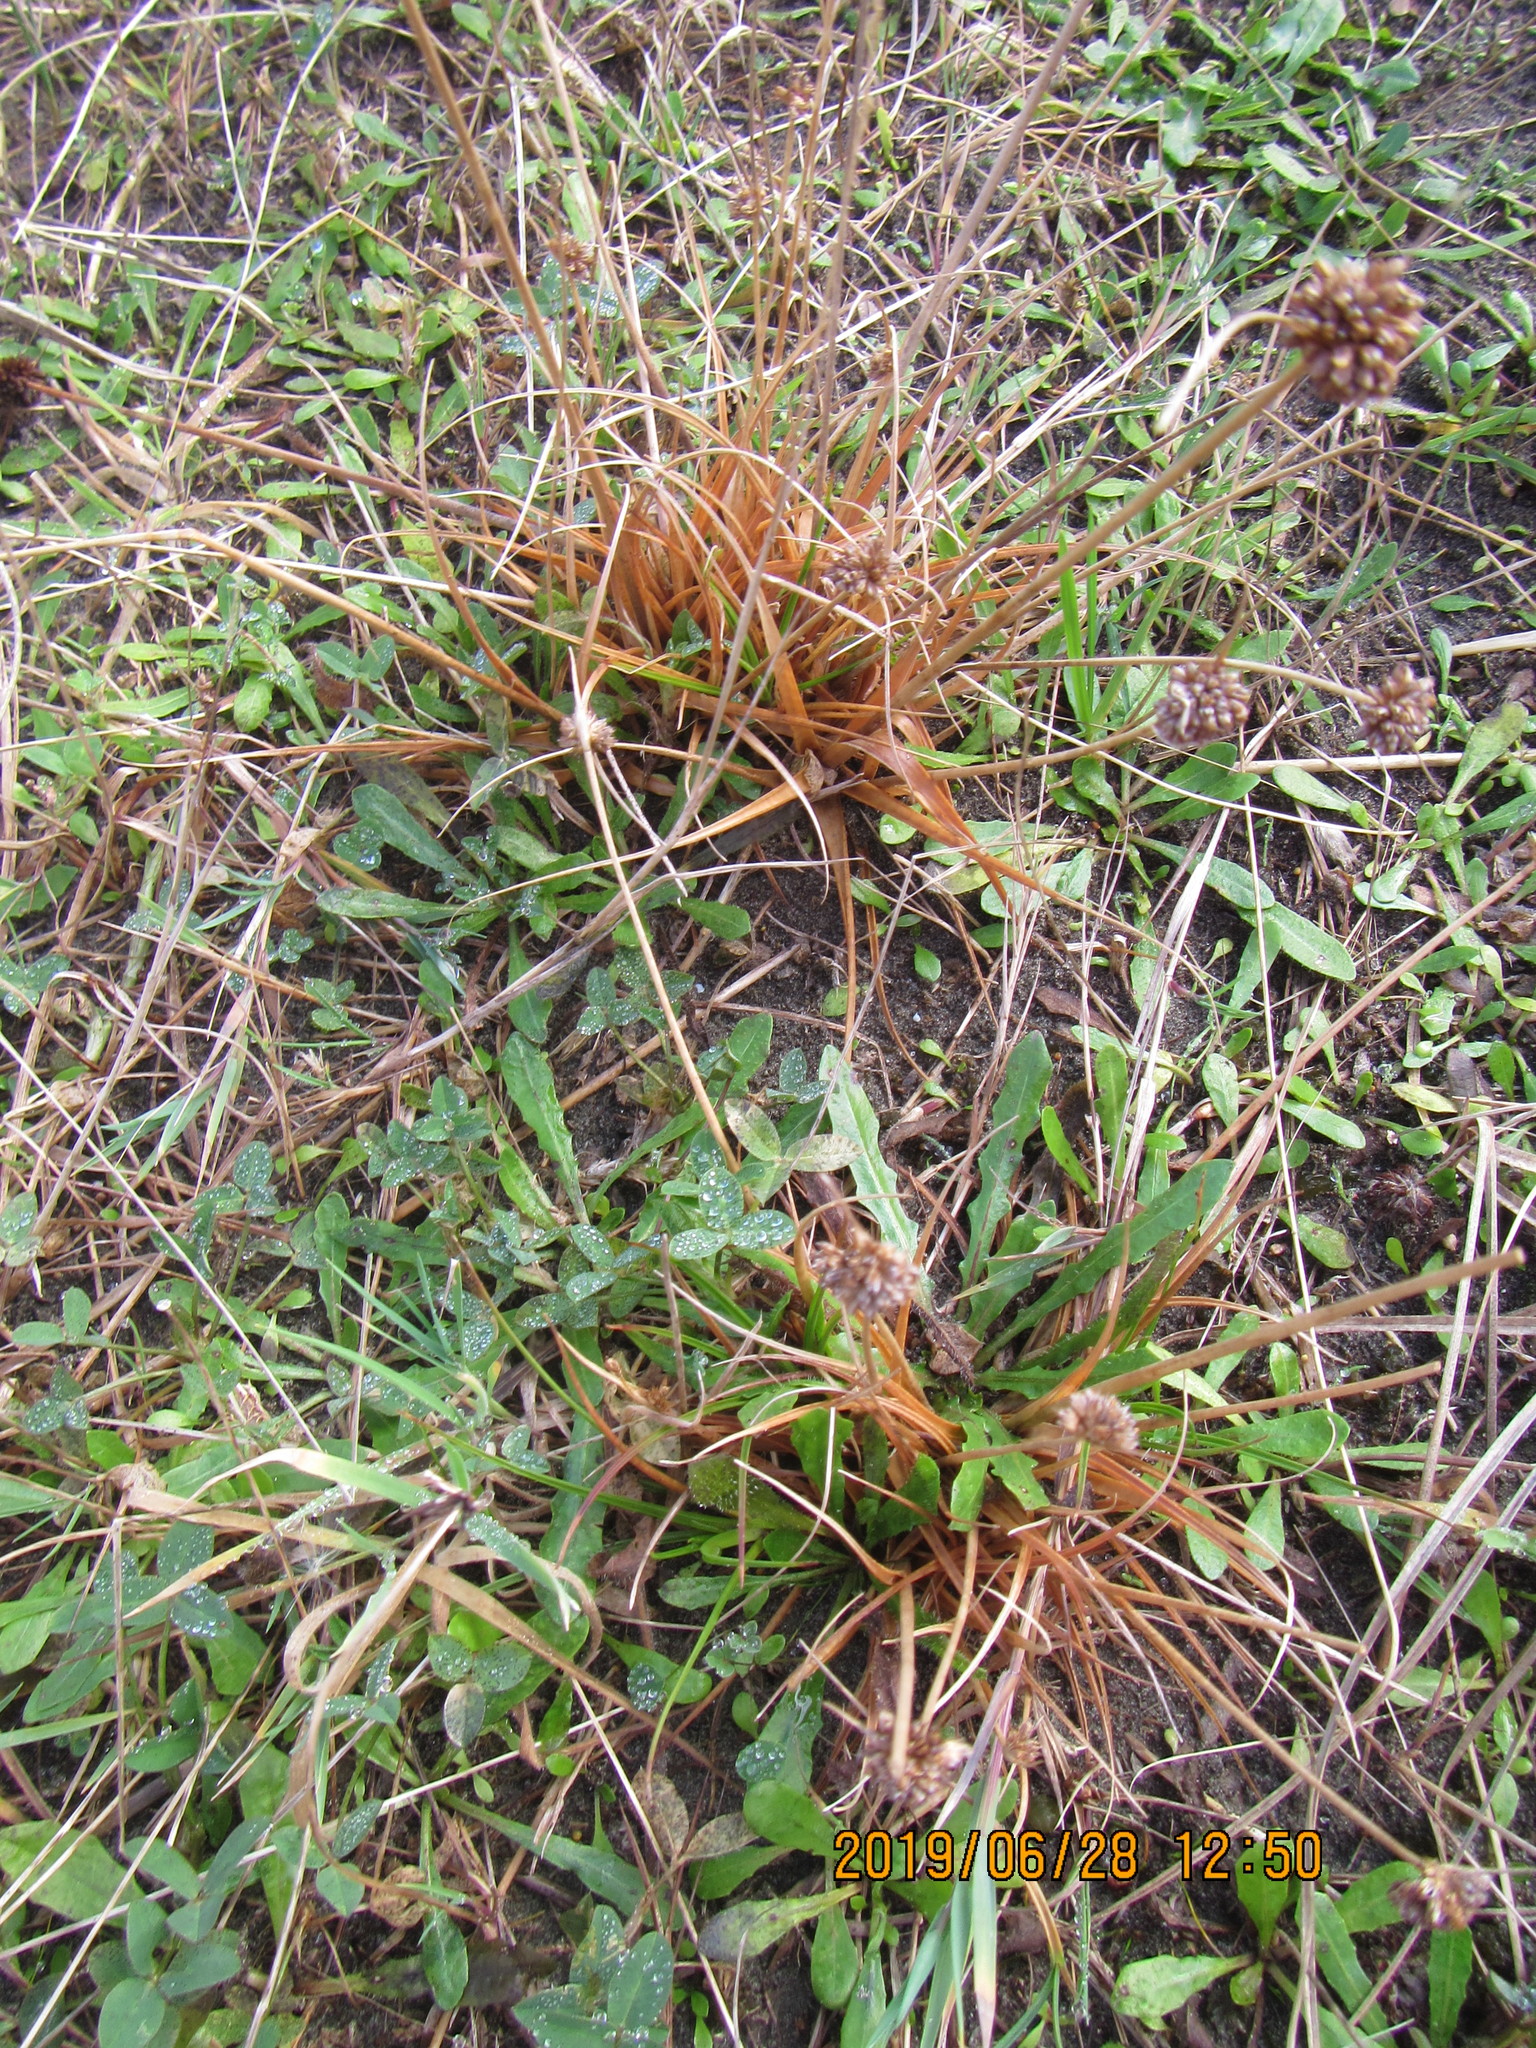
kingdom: Plantae
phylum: Tracheophyta
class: Liliopsida
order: Poales
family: Juncaceae
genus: Juncus
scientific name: Juncus caespiticius
